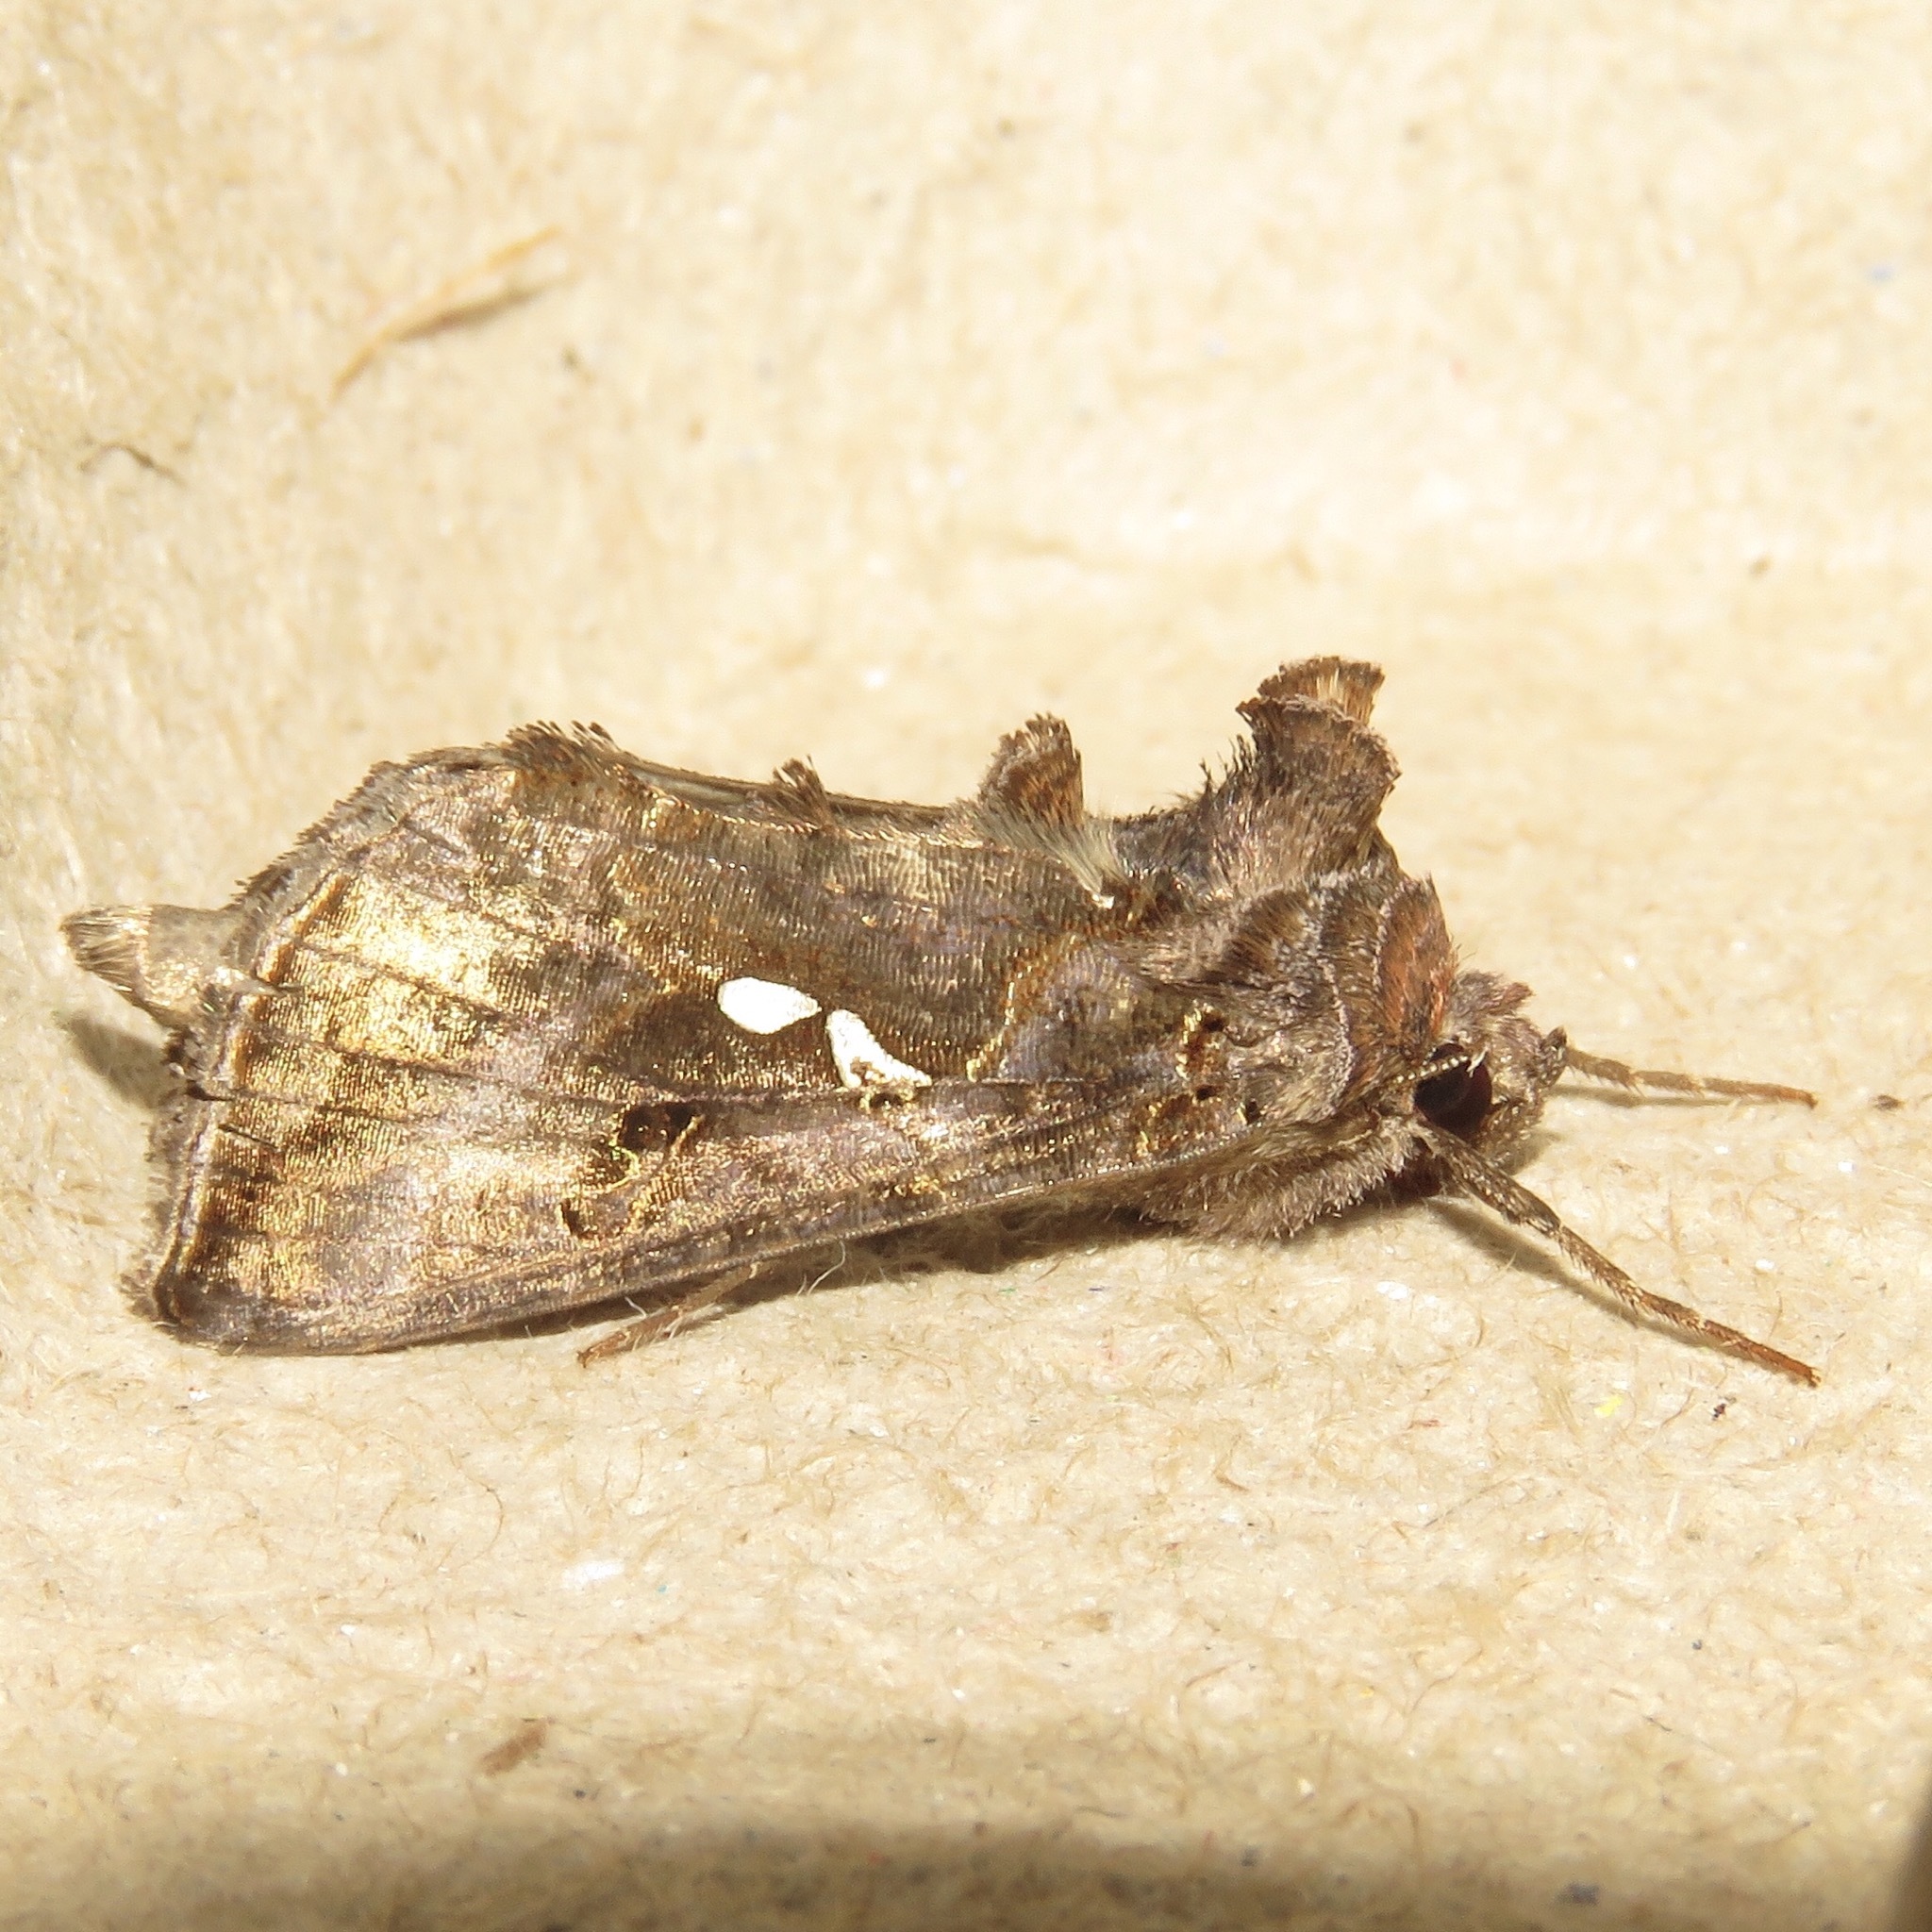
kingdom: Animalia
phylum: Arthropoda
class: Insecta
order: Lepidoptera
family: Noctuidae
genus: Autographa
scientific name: Autographa precationis
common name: Common looper moth
